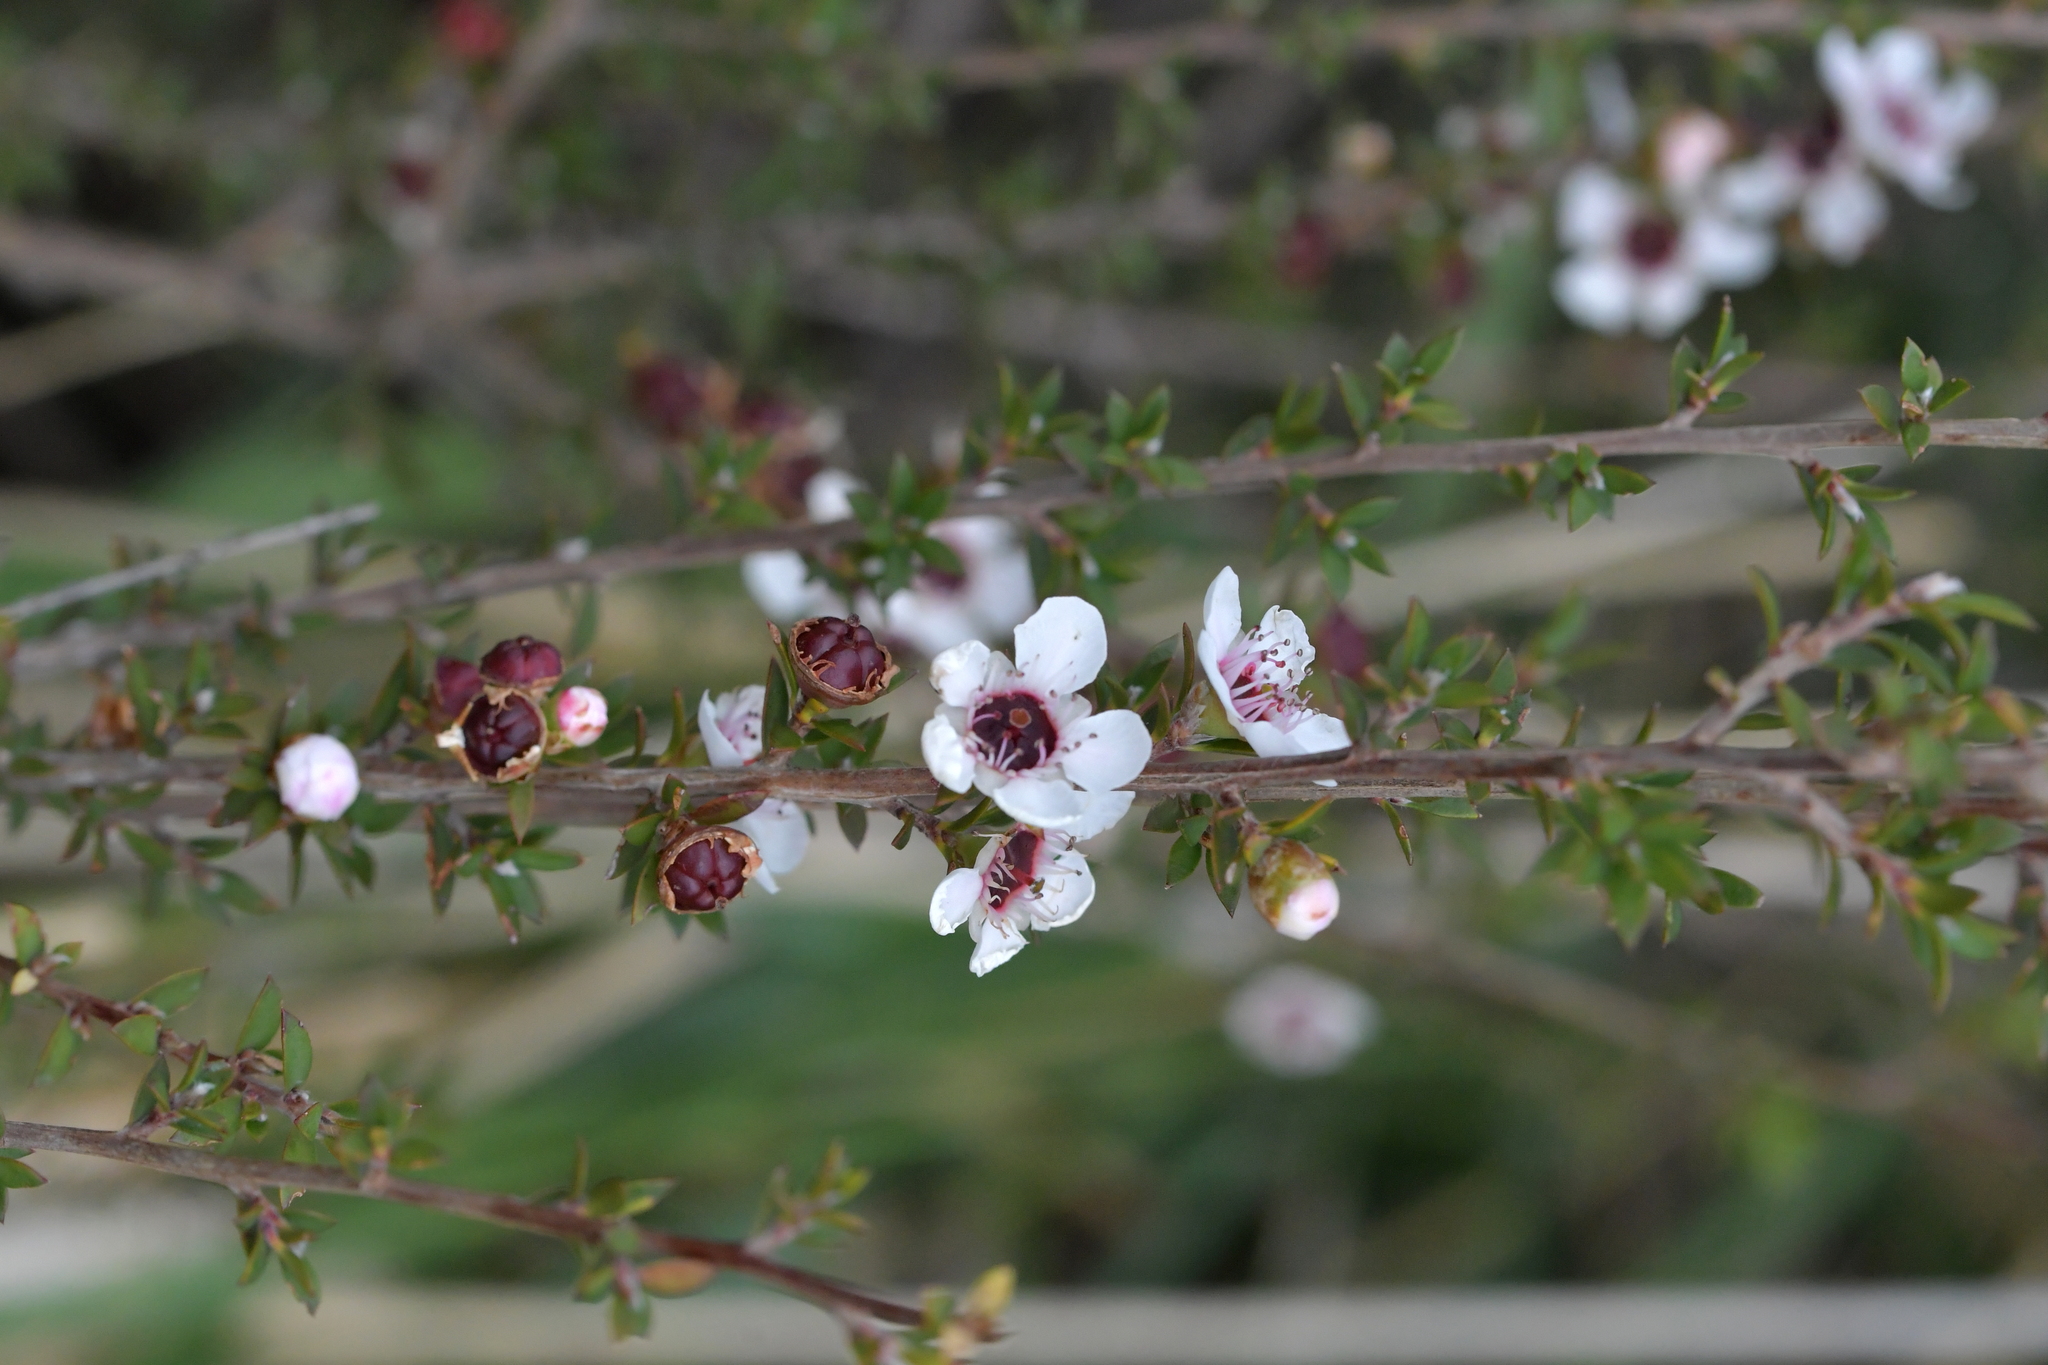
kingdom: Plantae
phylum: Tracheophyta
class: Magnoliopsida
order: Myrtales
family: Myrtaceae
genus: Leptospermum
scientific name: Leptospermum scoparium
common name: Broom tea-tree
